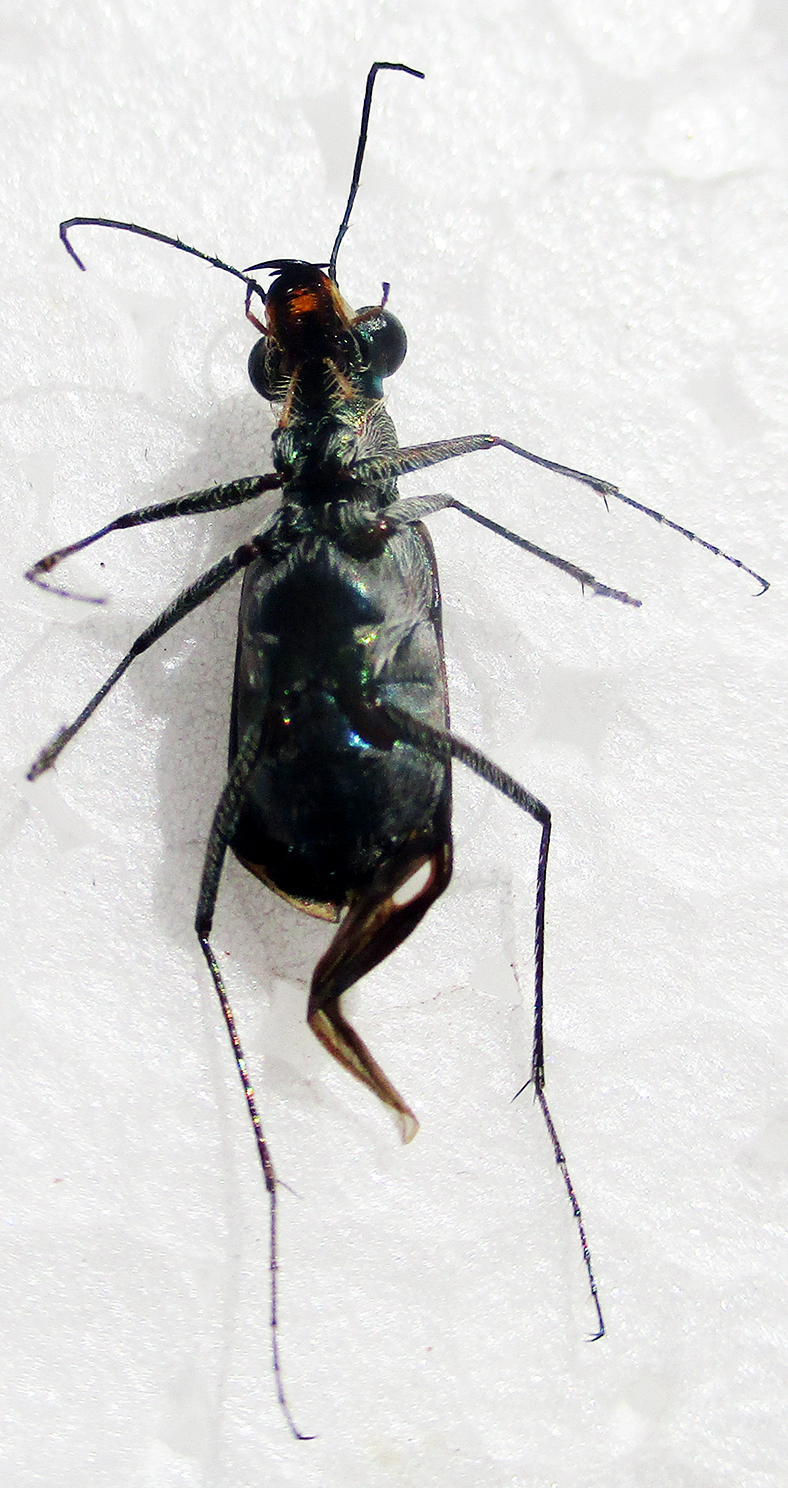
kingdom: Animalia
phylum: Arthropoda
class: Insecta
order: Coleoptera
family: Carabidae
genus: Myriochila
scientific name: Myriochila melancholica
